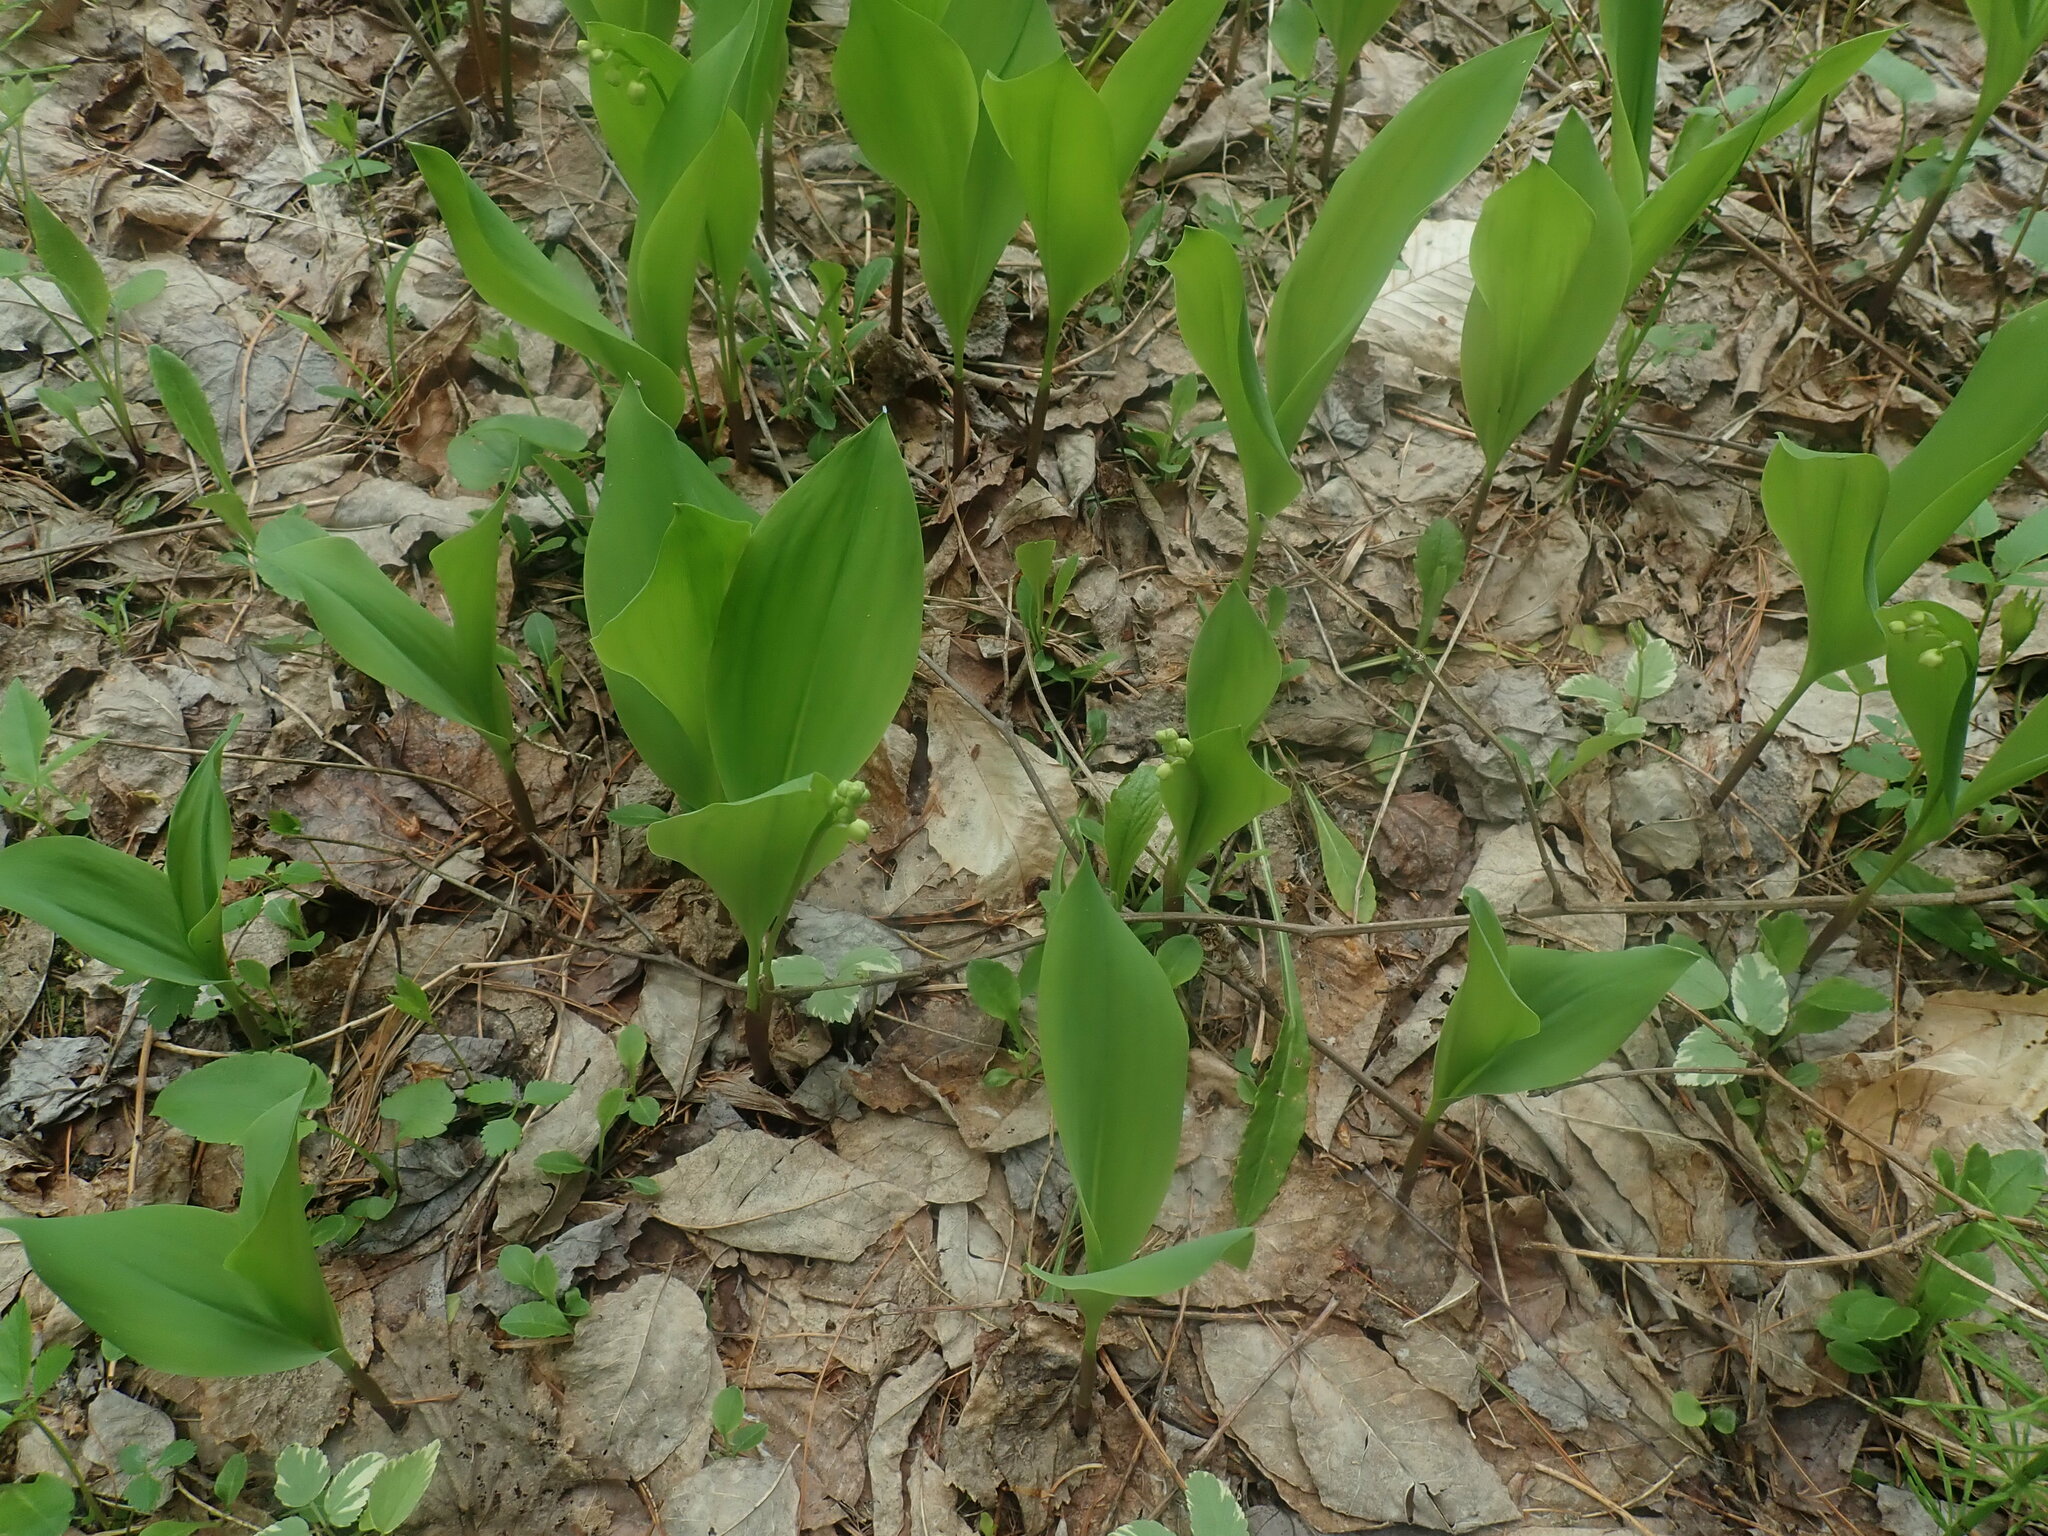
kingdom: Plantae
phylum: Tracheophyta
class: Liliopsida
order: Asparagales
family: Asparagaceae
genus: Convallaria
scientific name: Convallaria majalis
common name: Lily-of-the-valley
